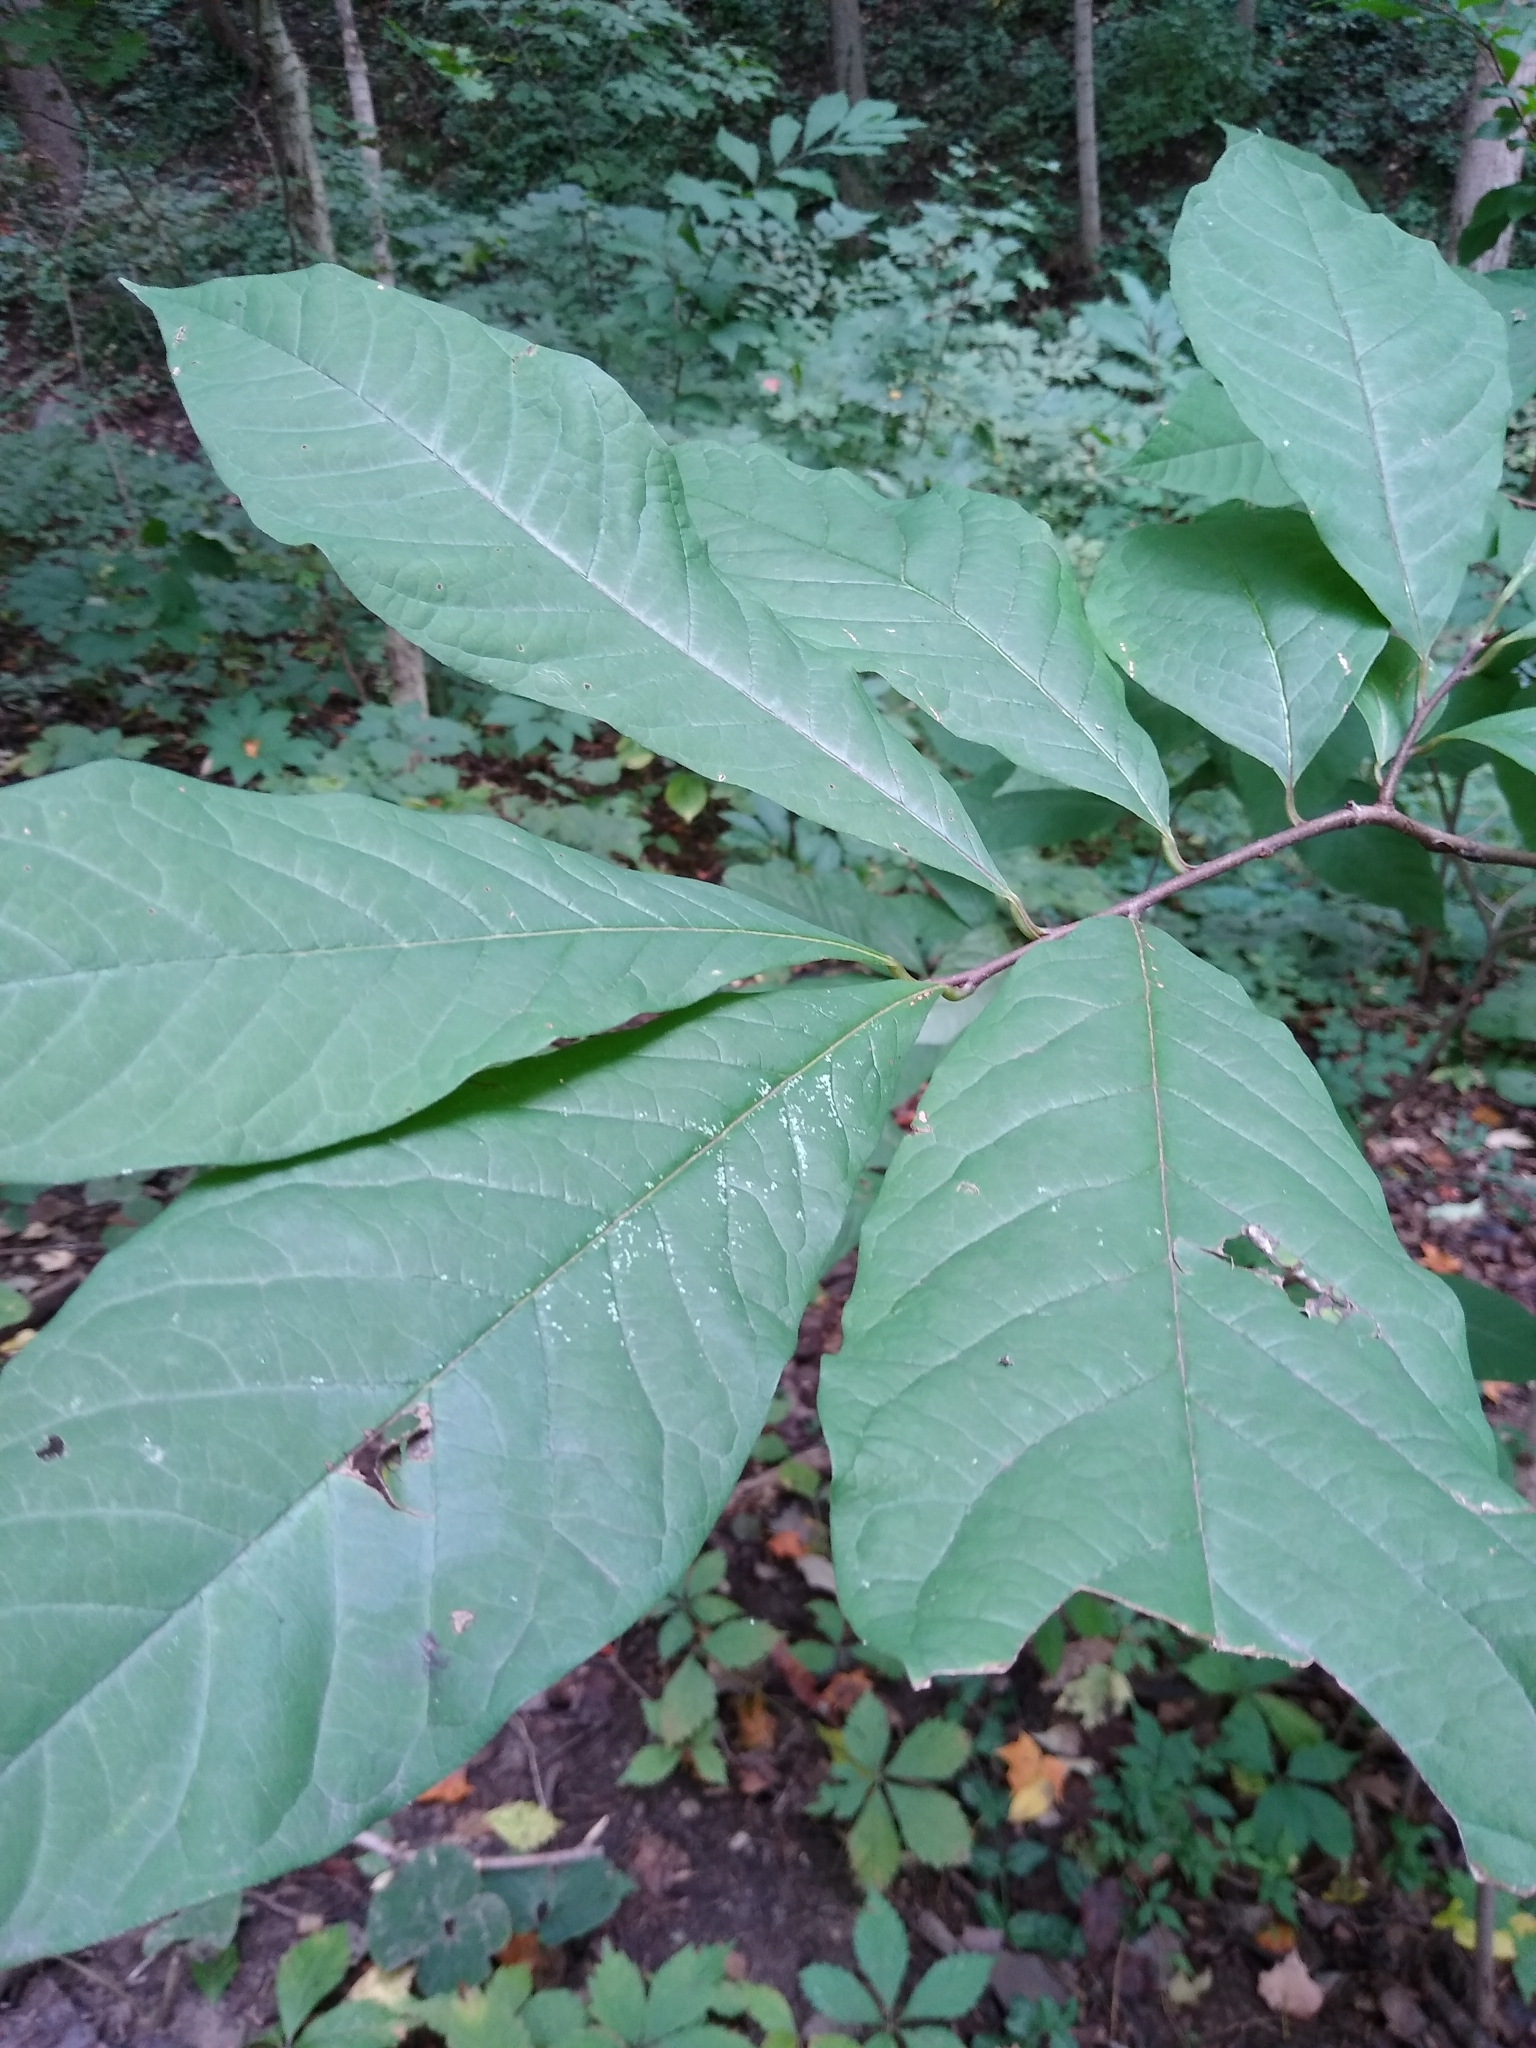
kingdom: Plantae
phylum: Tracheophyta
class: Magnoliopsida
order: Magnoliales
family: Annonaceae
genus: Asimina
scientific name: Asimina triloba
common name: Dog-banana
